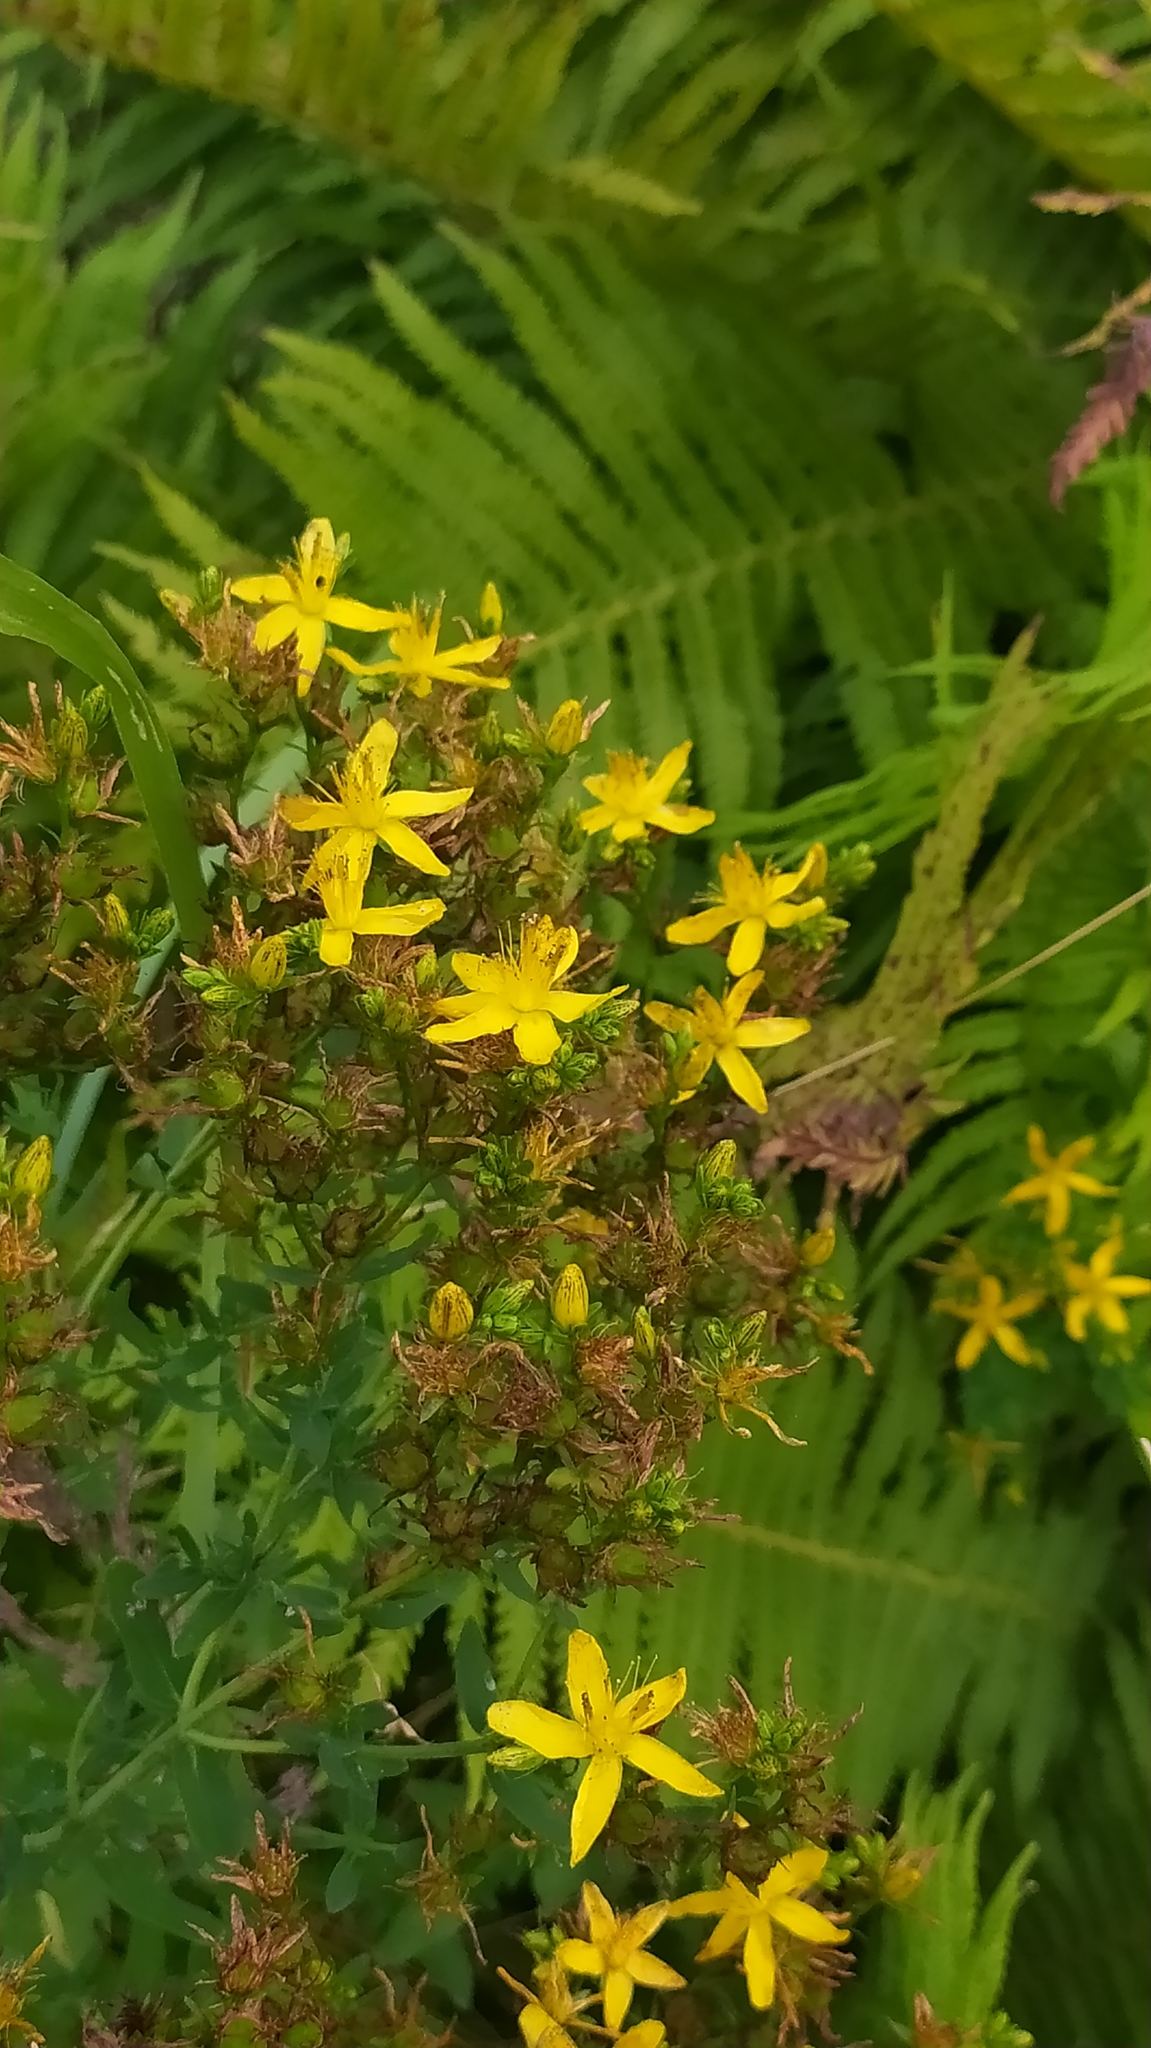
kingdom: Plantae
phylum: Tracheophyta
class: Magnoliopsida
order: Malpighiales
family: Hypericaceae
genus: Hypericum
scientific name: Hypericum perforatum
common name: Common st. johnswort
